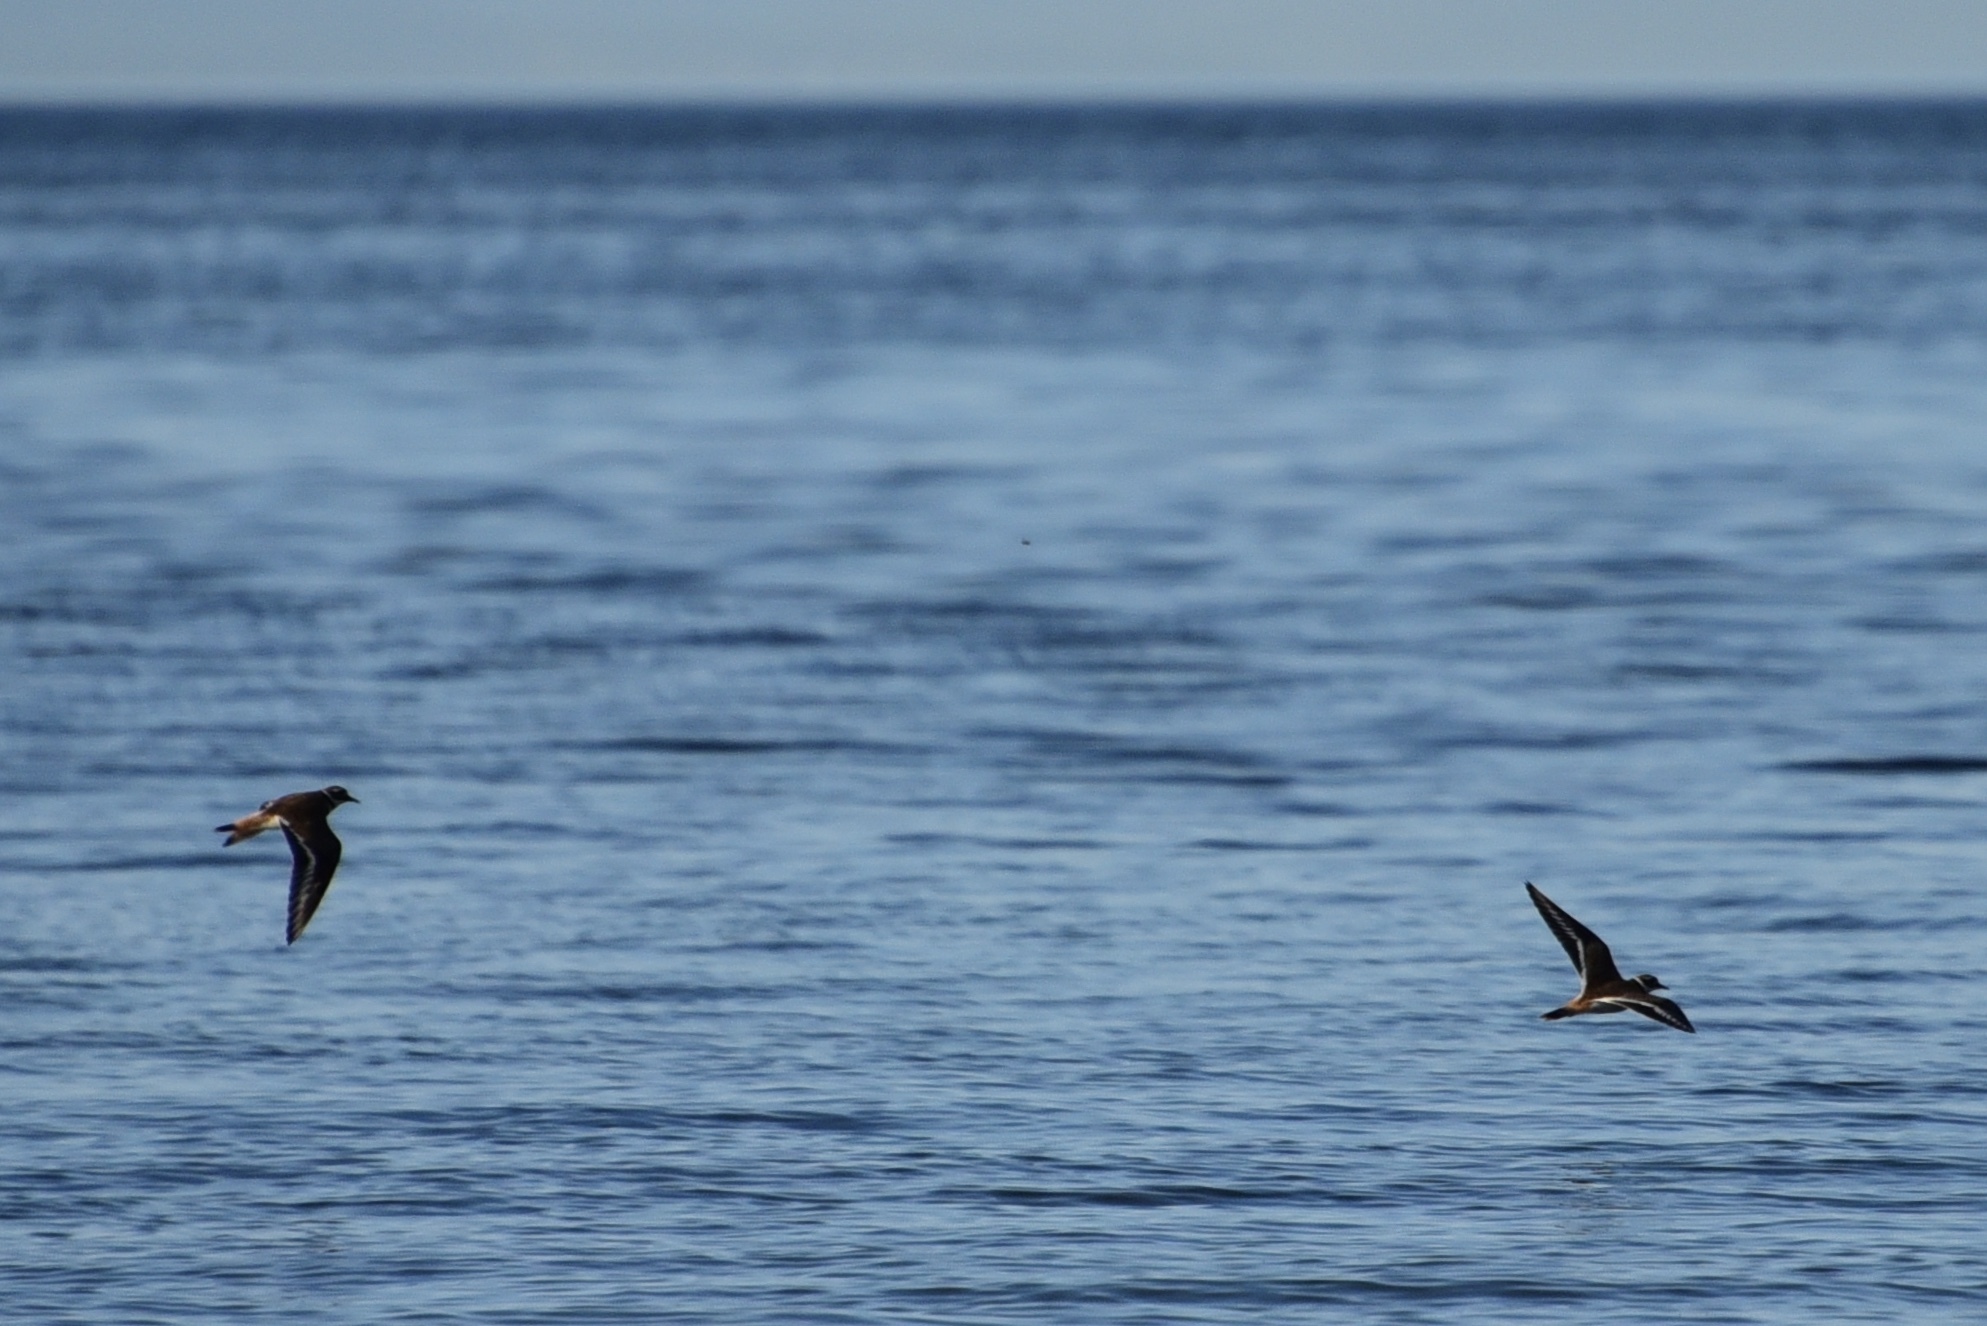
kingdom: Animalia
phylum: Chordata
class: Aves
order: Charadriiformes
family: Charadriidae
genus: Charadrius
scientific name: Charadrius vociferus
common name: Killdeer
